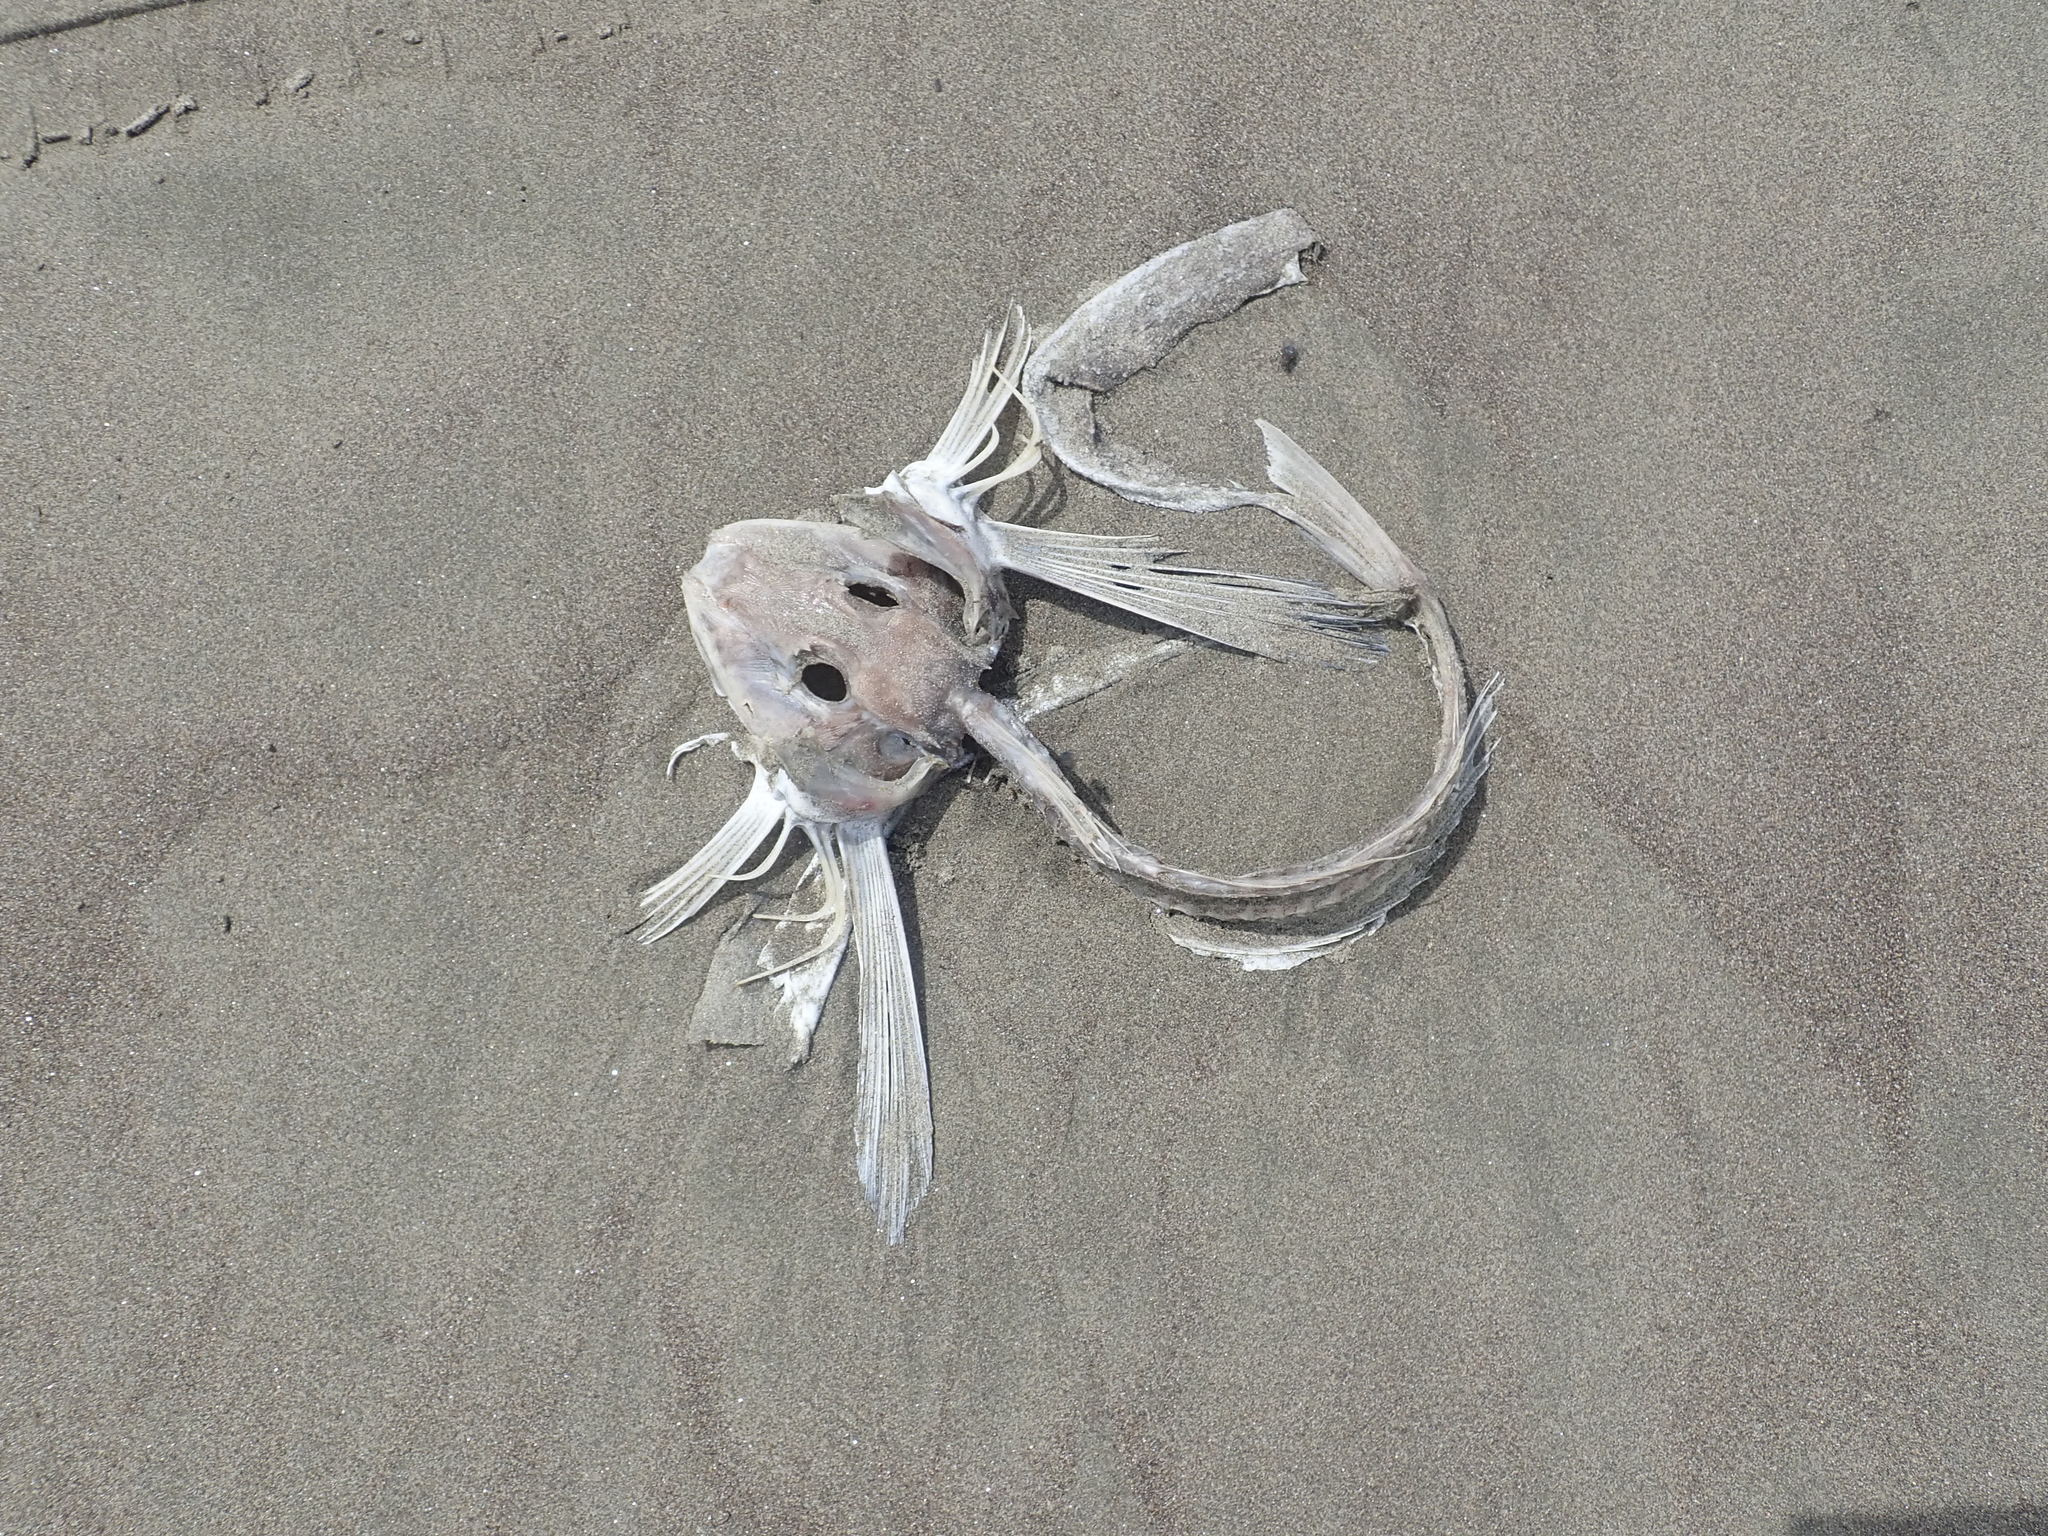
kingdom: Animalia
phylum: Chordata
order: Scorpaeniformes
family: Triglidae
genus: Chelidonichthys
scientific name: Chelidonichthys kumu
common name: Bluefin gurnard
